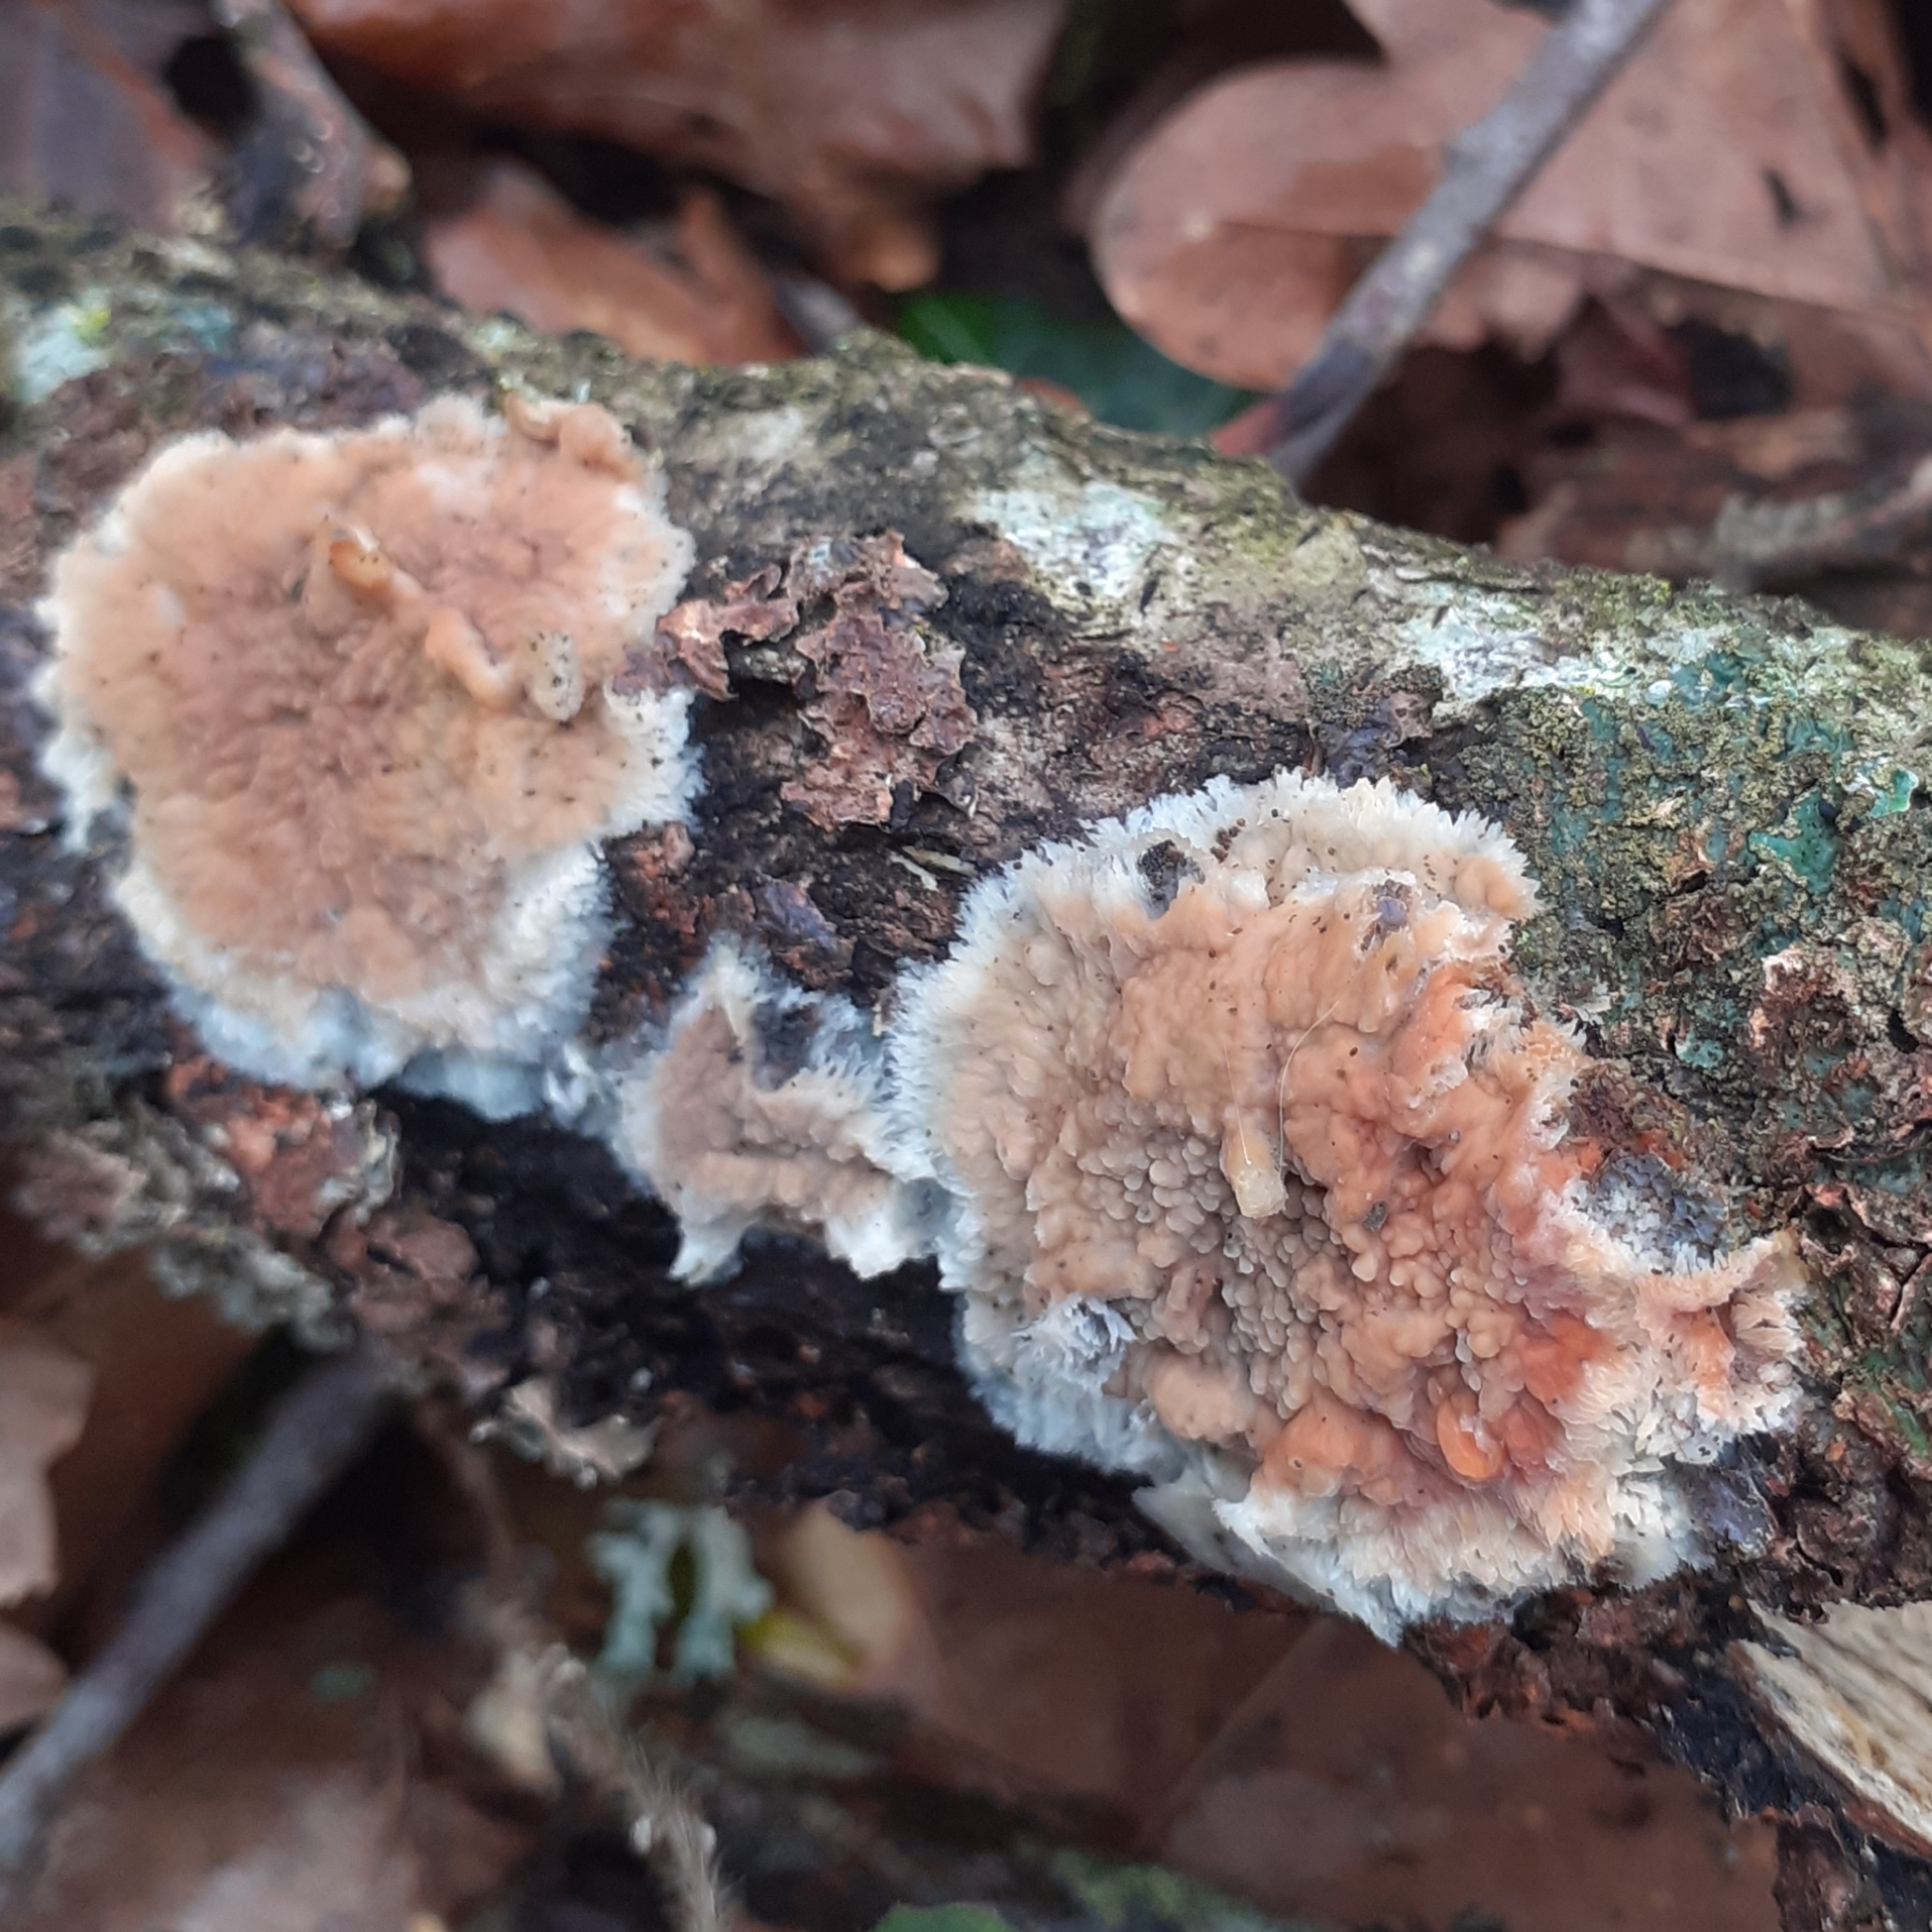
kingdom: Fungi
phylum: Basidiomycota
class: Agaricomycetes
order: Polyporales
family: Meruliaceae
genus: Phlebia
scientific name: Phlebia radiata
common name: Wrinkled crust
